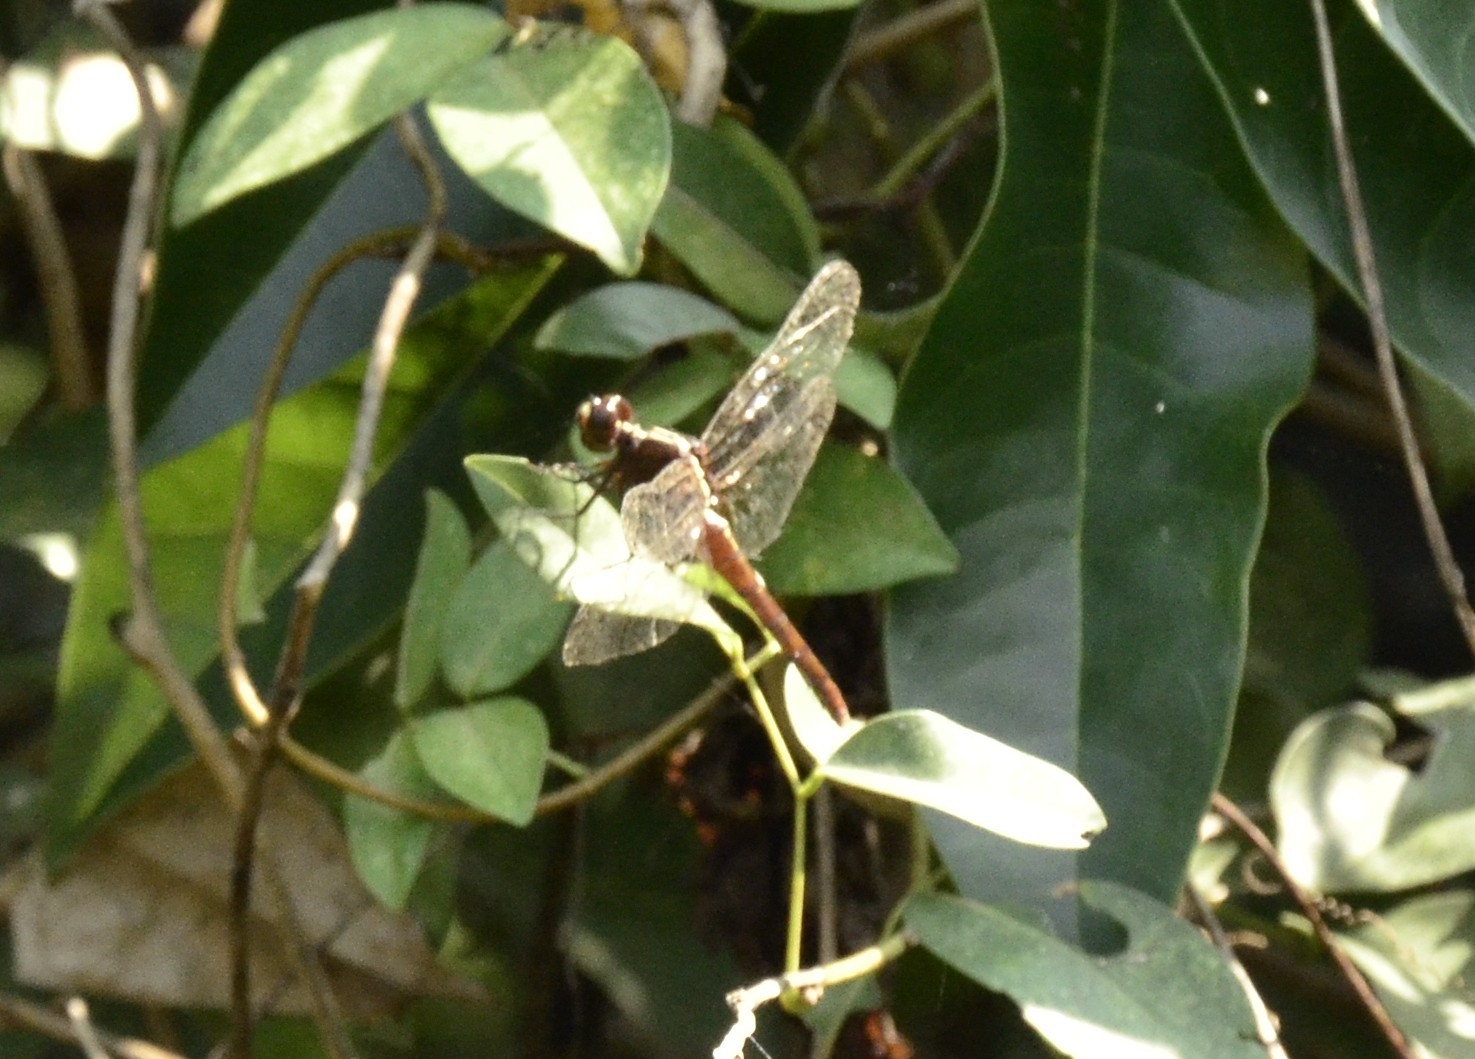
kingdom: Animalia
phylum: Arthropoda
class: Insecta
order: Odonata
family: Libellulidae
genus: Rhodothemis
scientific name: Rhodothemis rufa
